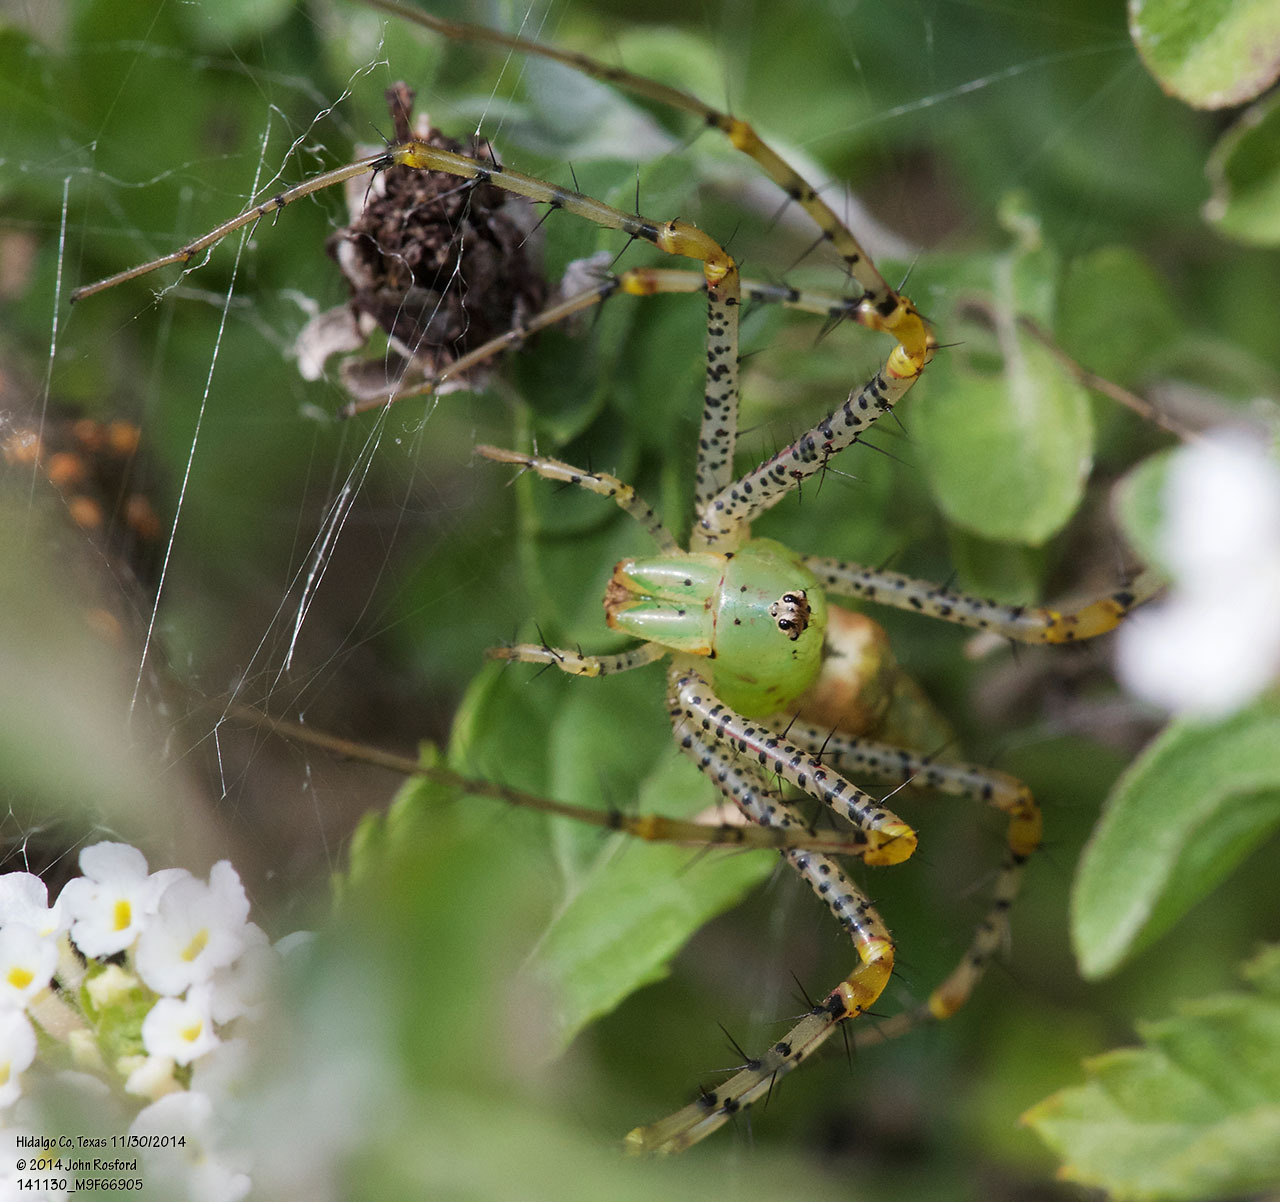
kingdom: Animalia
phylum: Arthropoda
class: Arachnida
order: Araneae
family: Oxyopidae
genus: Peucetia
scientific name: Peucetia viridans
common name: Lynx spiders
